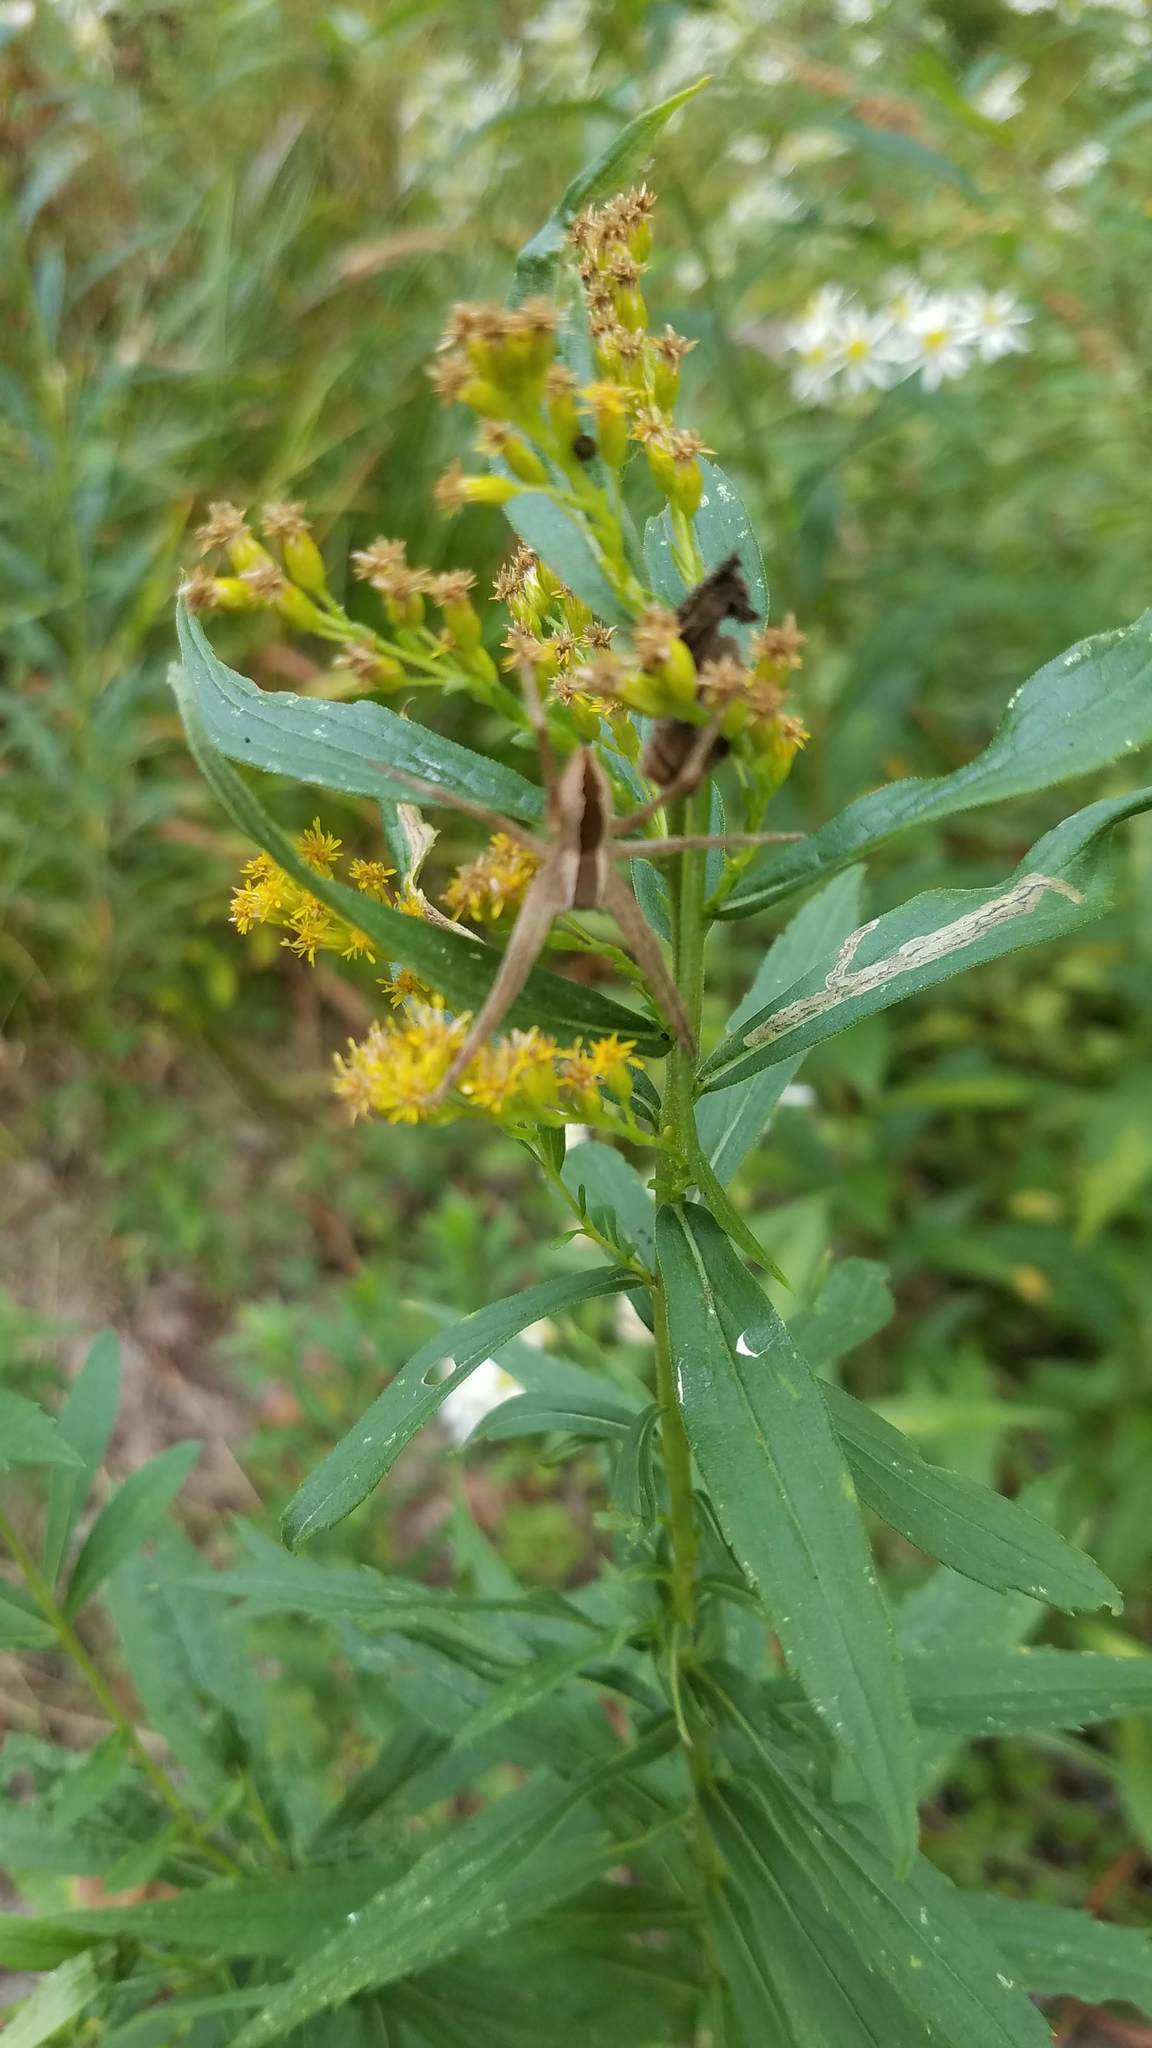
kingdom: Animalia
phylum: Arthropoda
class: Arachnida
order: Araneae
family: Pisauridae
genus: Pisaurina
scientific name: Pisaurina mira
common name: American nursery web spider
